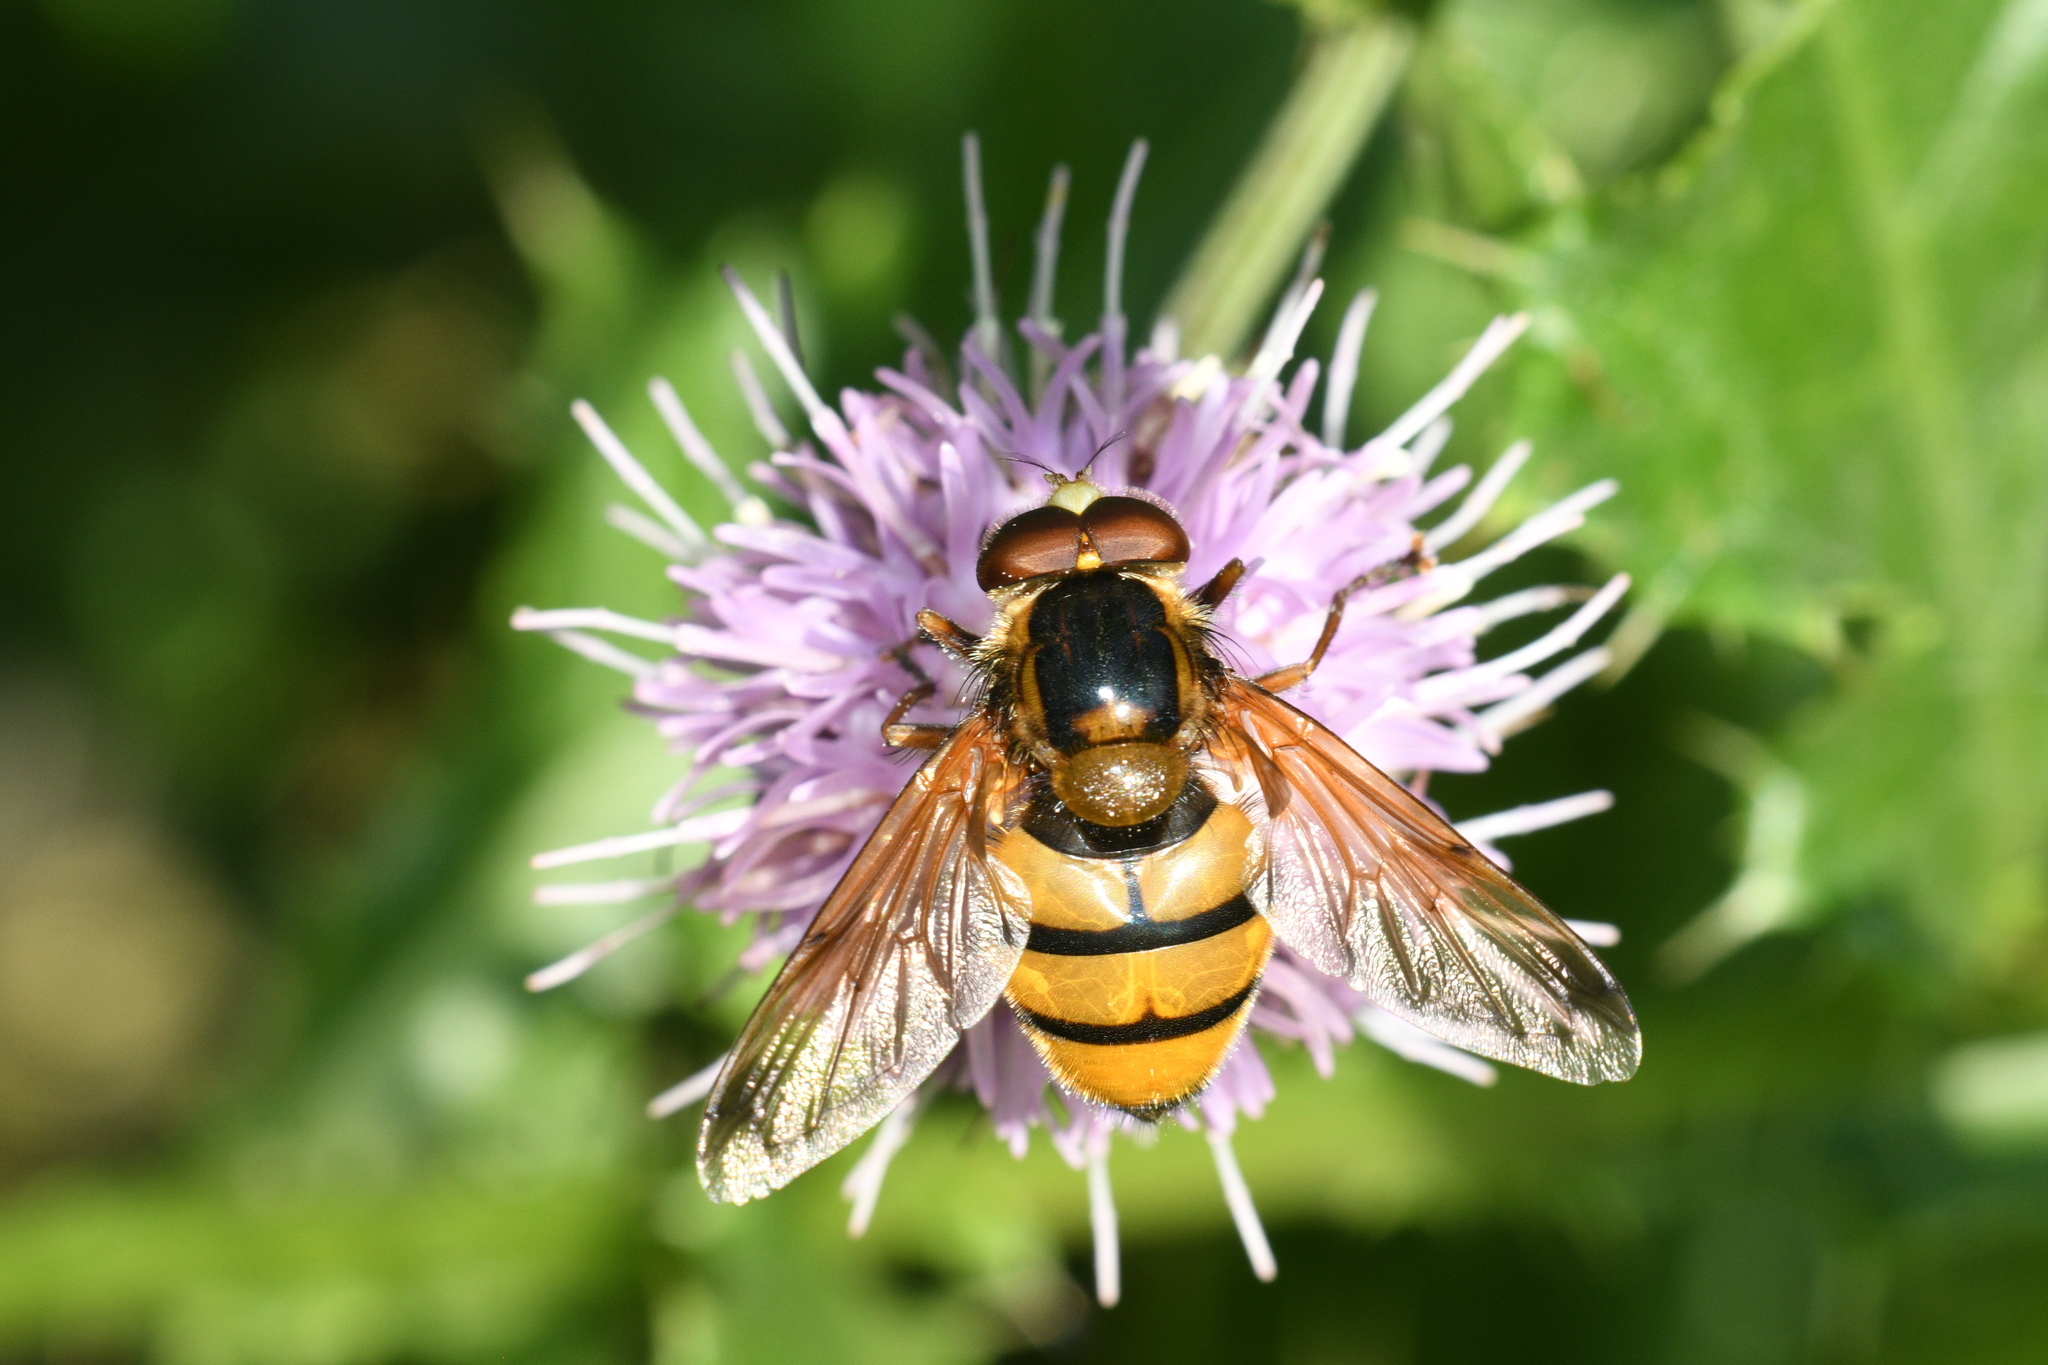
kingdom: Animalia
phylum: Arthropoda
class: Insecta
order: Diptera
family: Syrphidae
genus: Volucella
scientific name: Volucella inanis
